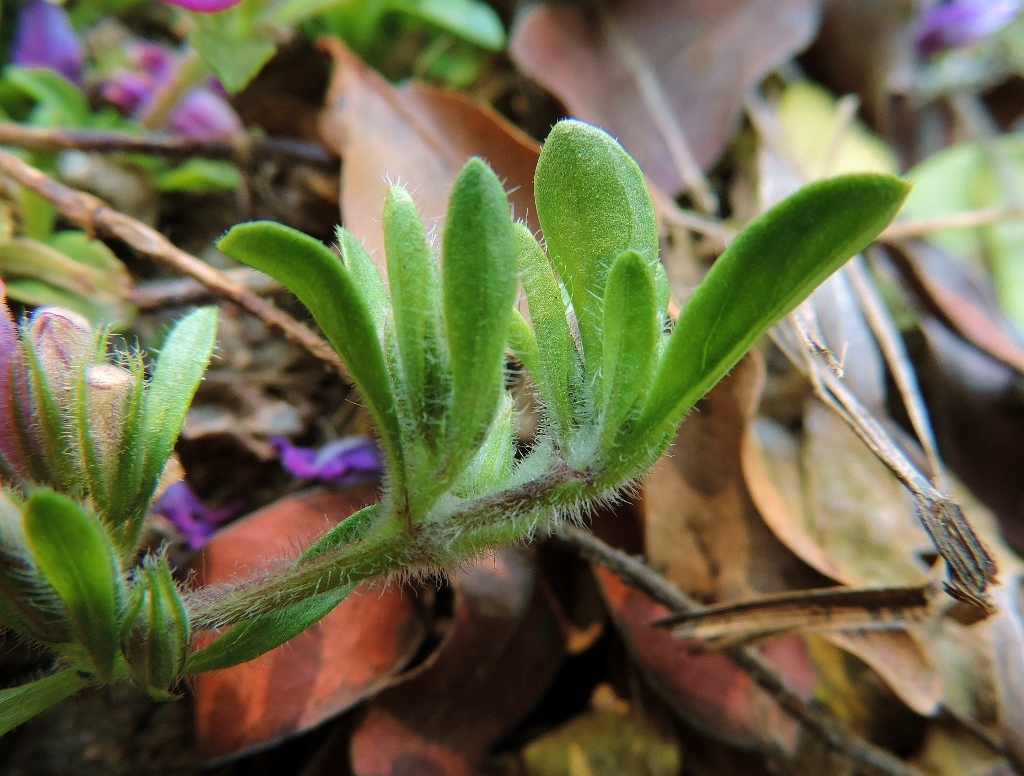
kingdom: Plantae
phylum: Tracheophyta
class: Magnoliopsida
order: Lamiales
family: Acanthaceae
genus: Justicia
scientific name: Justicia elegantula
